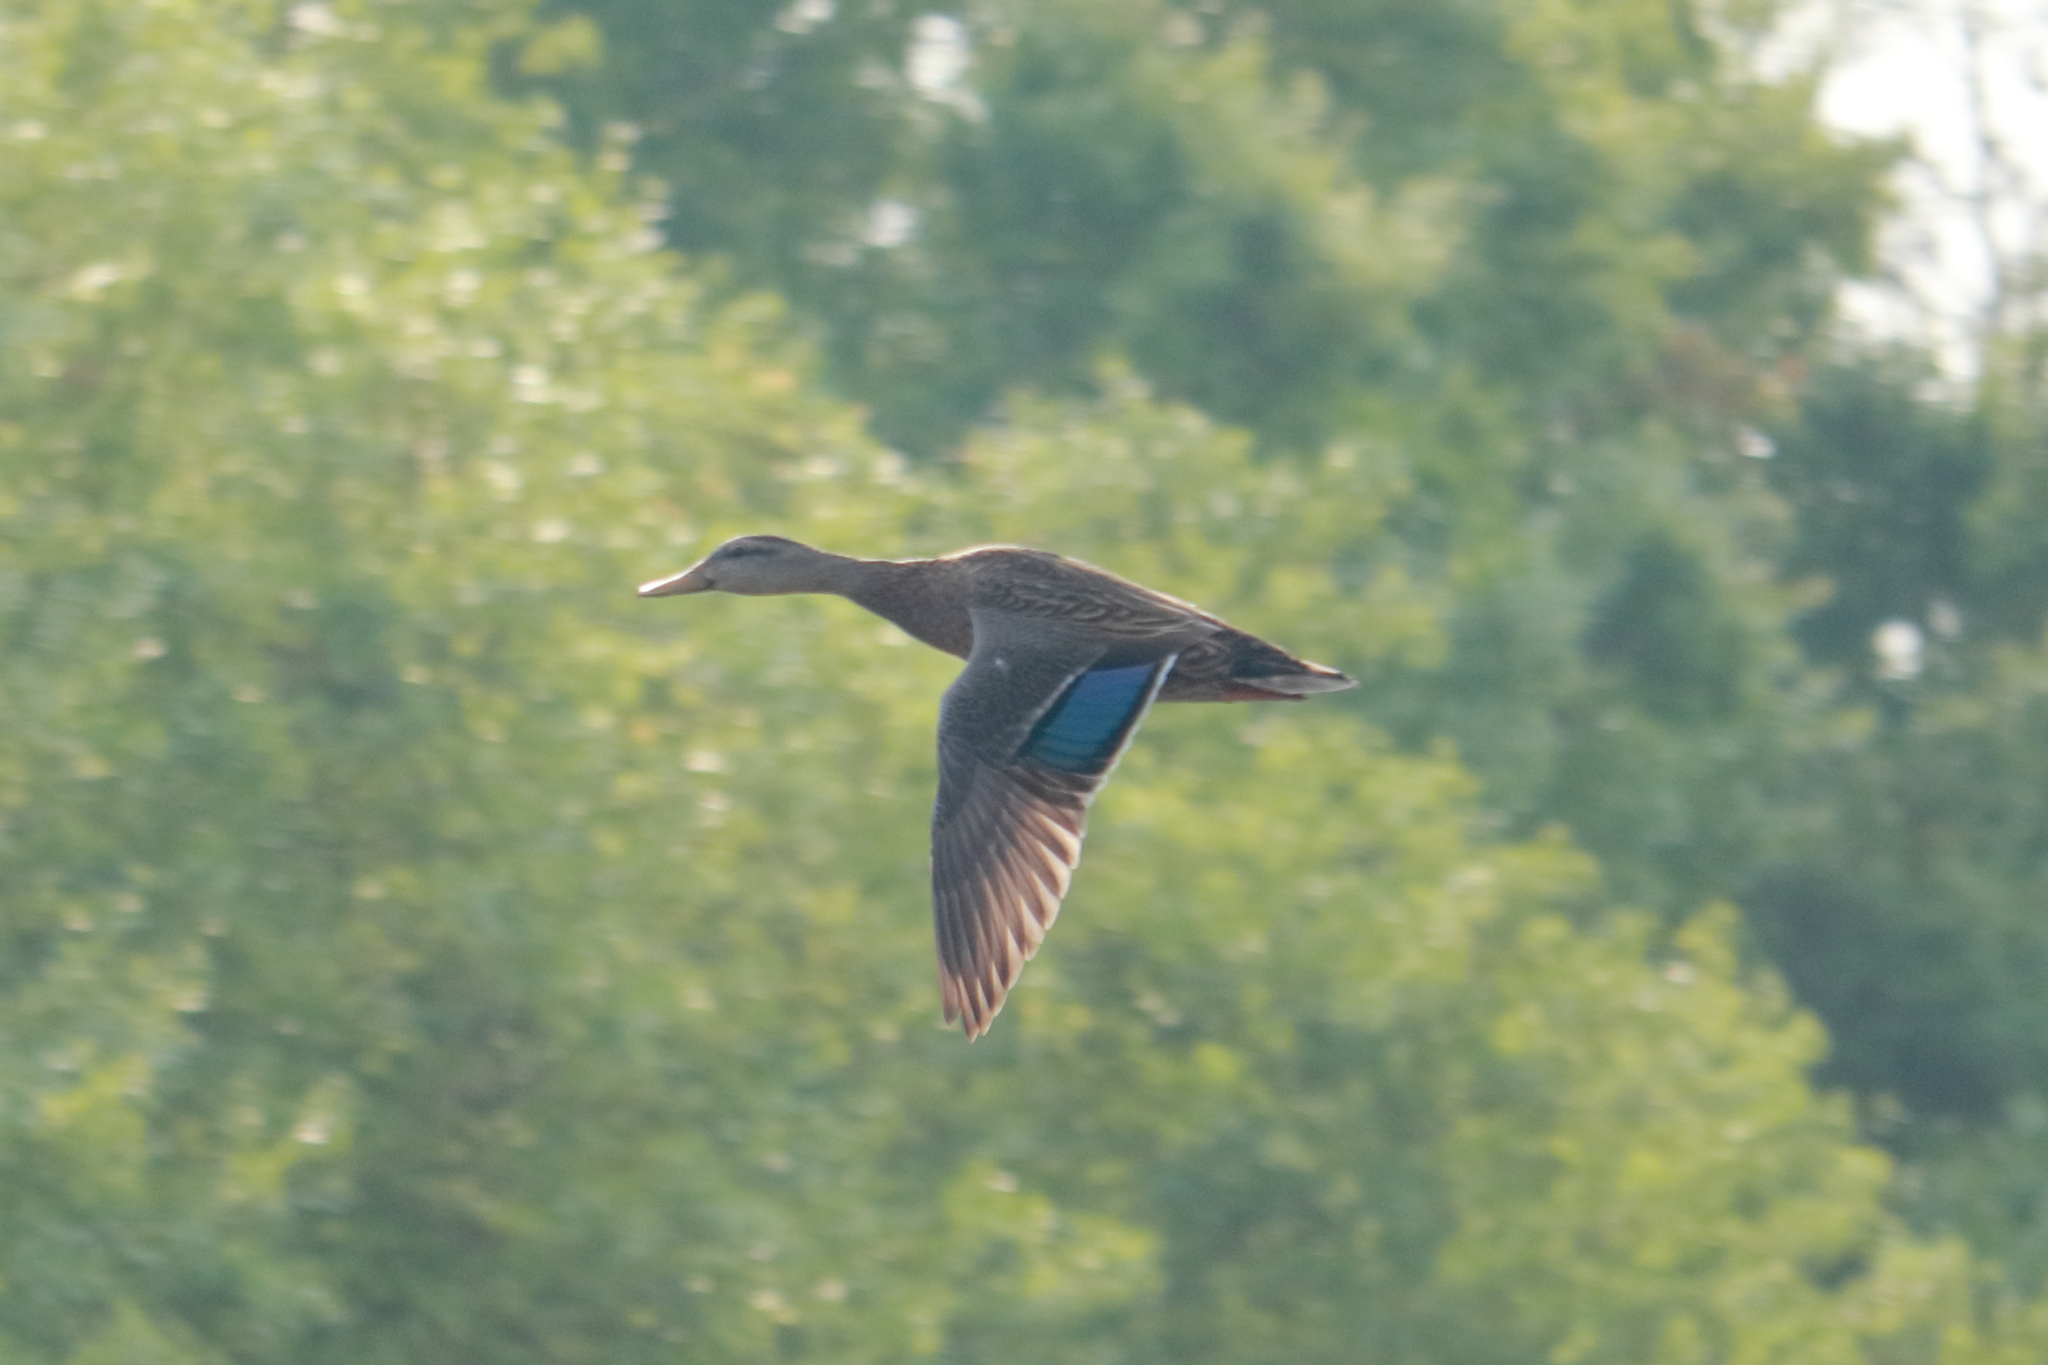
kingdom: Animalia
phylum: Chordata
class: Aves
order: Anseriformes
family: Anatidae
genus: Anas
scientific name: Anas platyrhynchos
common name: Mallard
